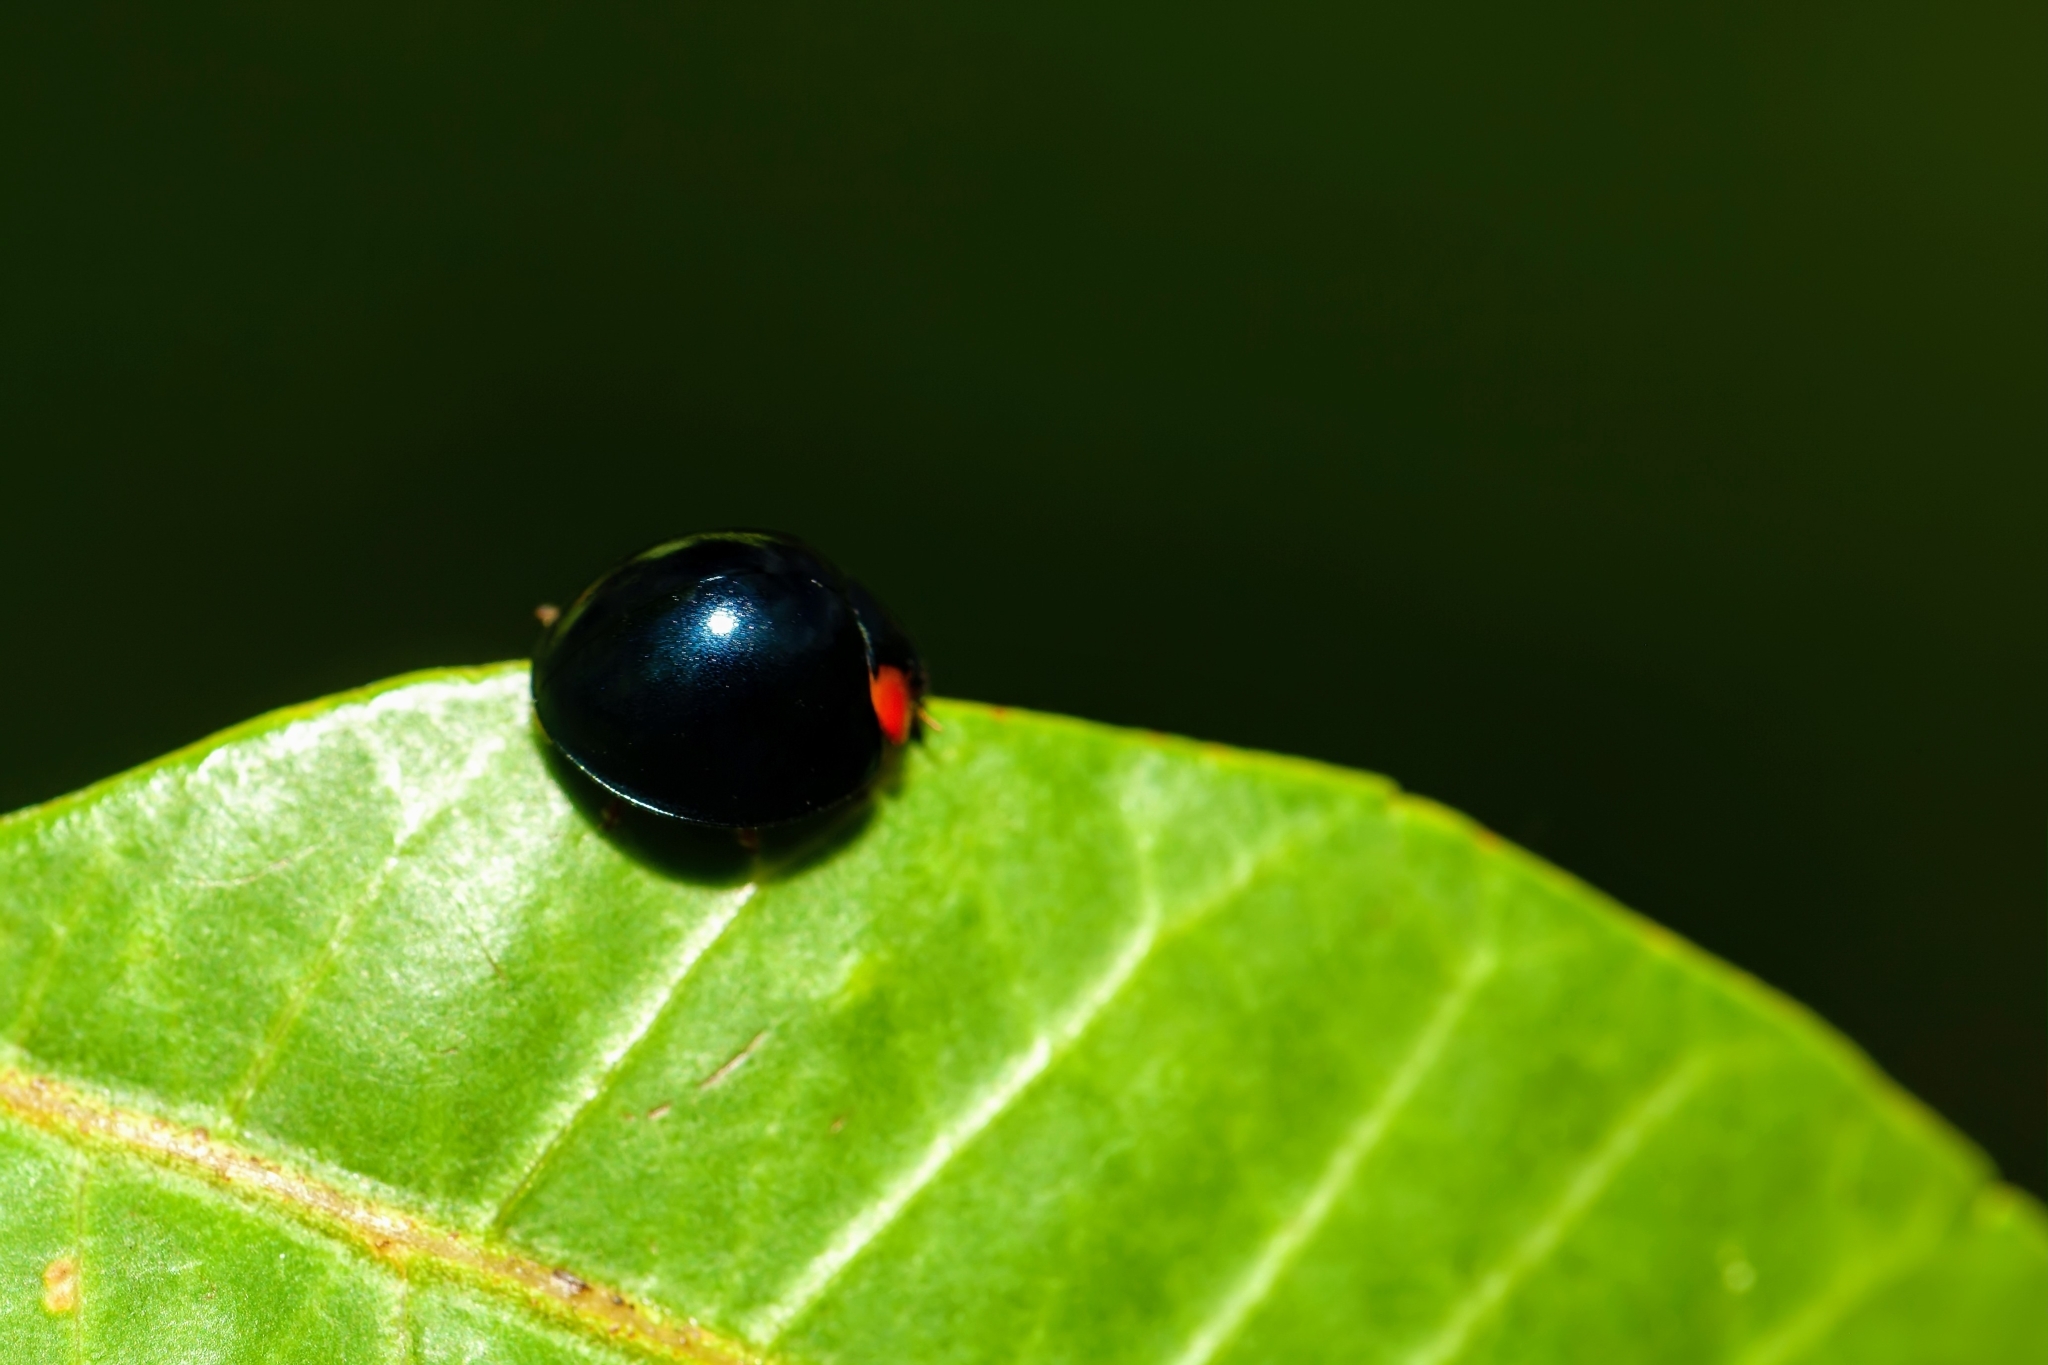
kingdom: Animalia
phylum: Arthropoda
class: Insecta
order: Coleoptera
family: Coccinellidae
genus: Curinus
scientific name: Curinus coeruleus
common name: Ladybird beetle
